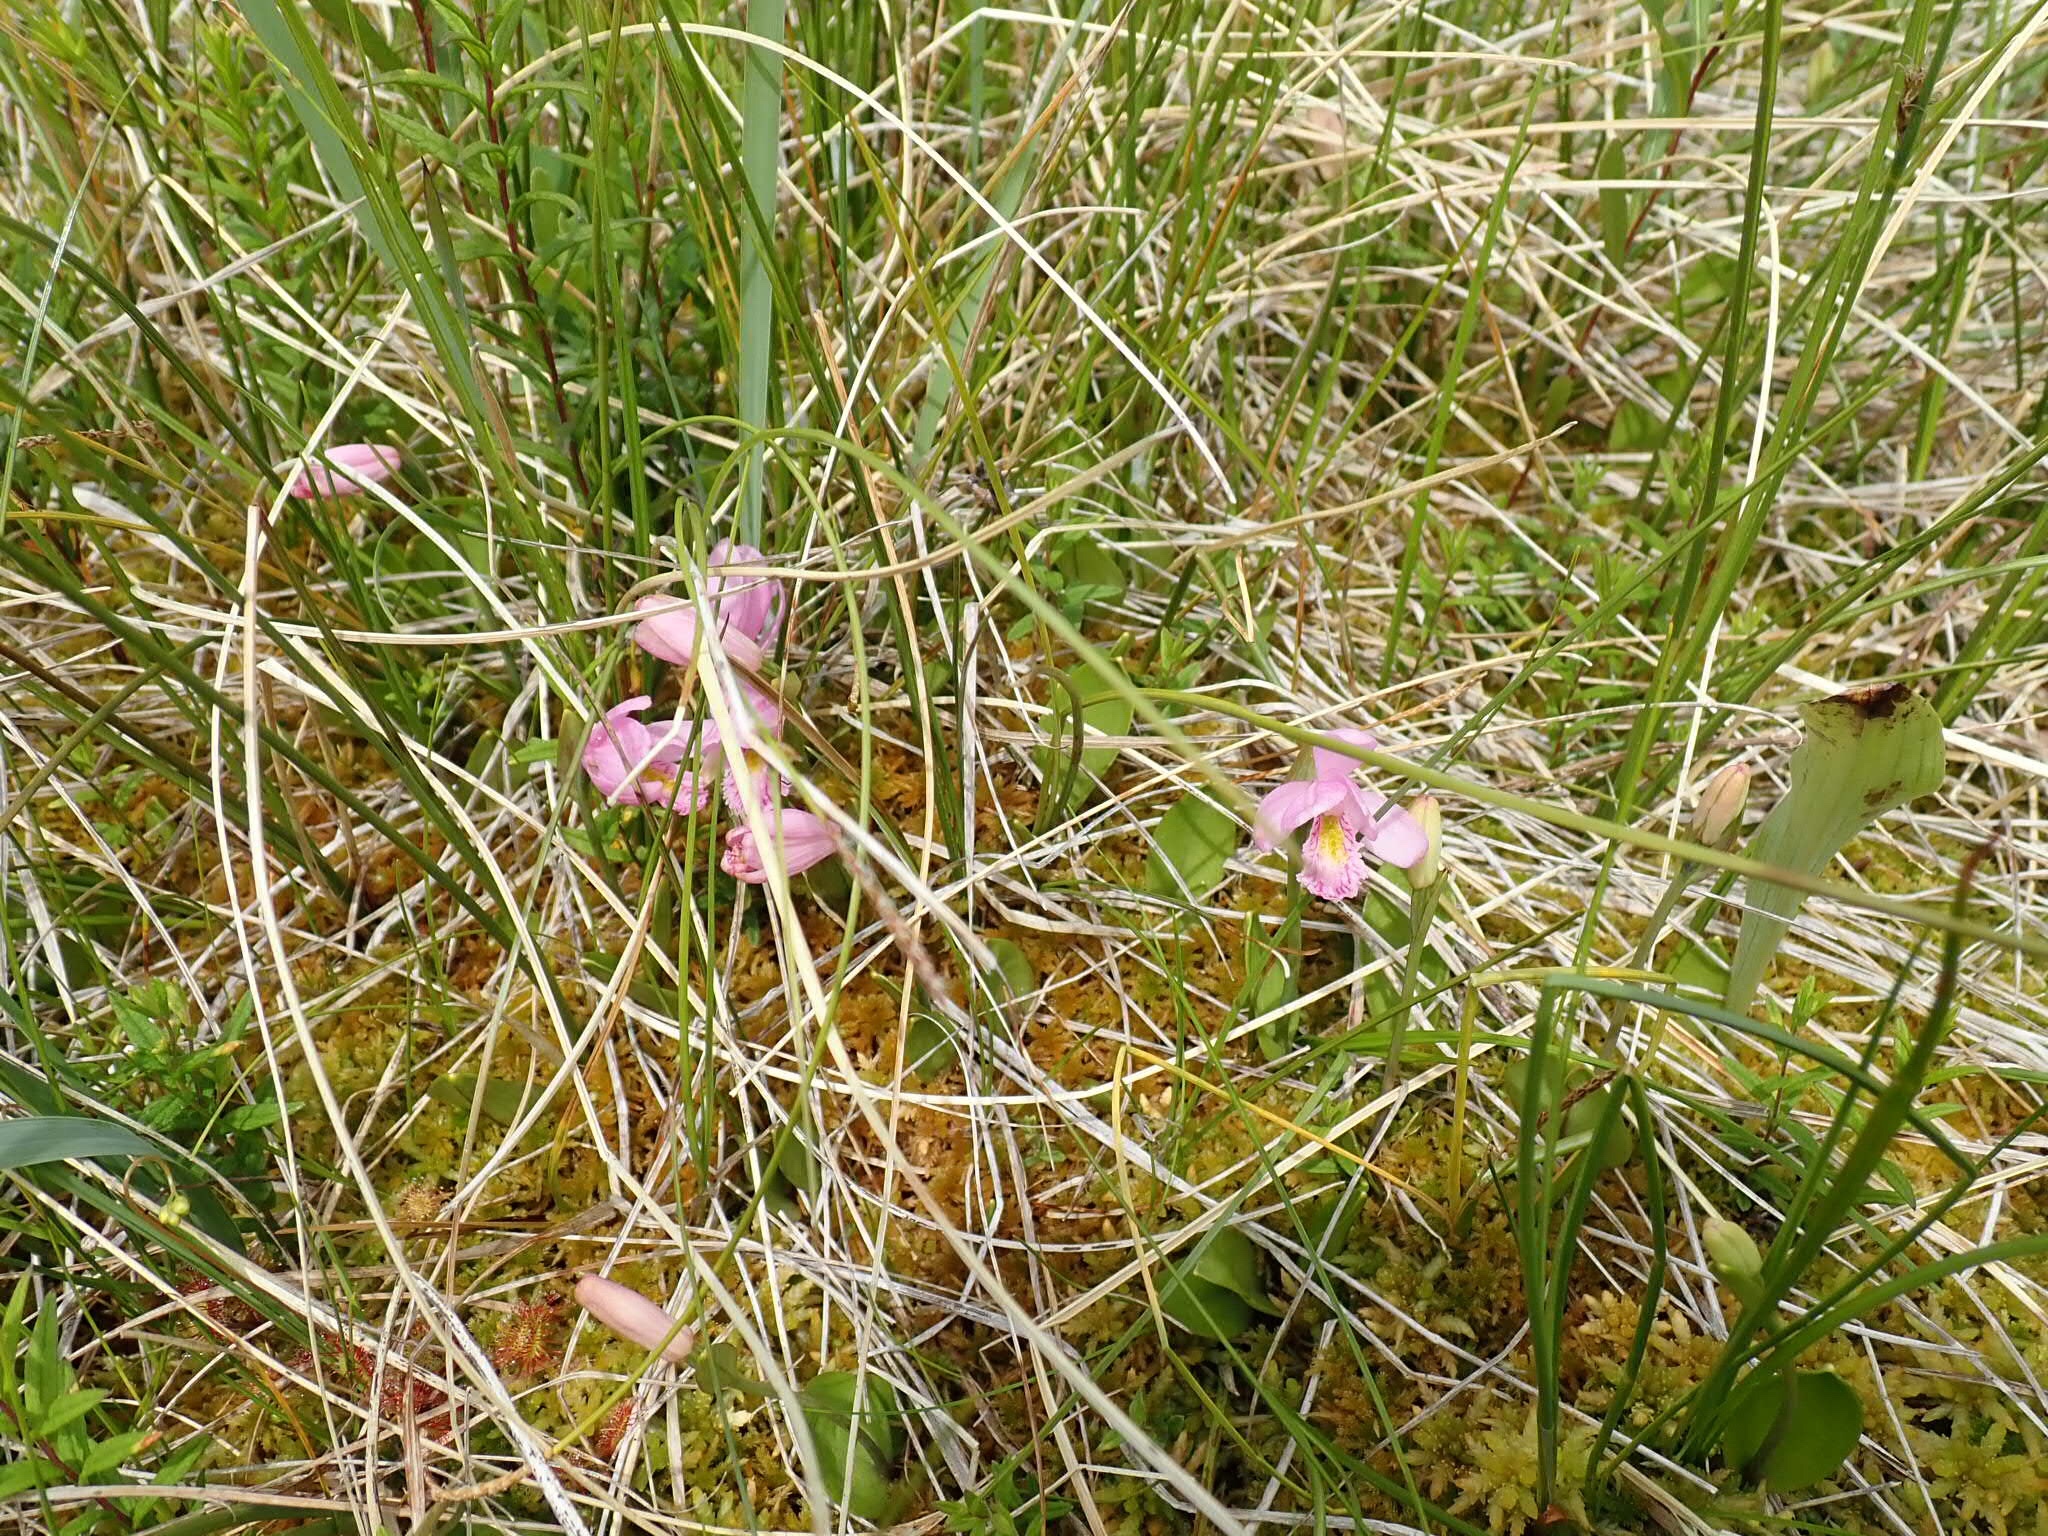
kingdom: Plantae
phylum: Tracheophyta
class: Liliopsida
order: Asparagales
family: Orchidaceae
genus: Pogonia
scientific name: Pogonia ophioglossoides
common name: Rose pogonia
